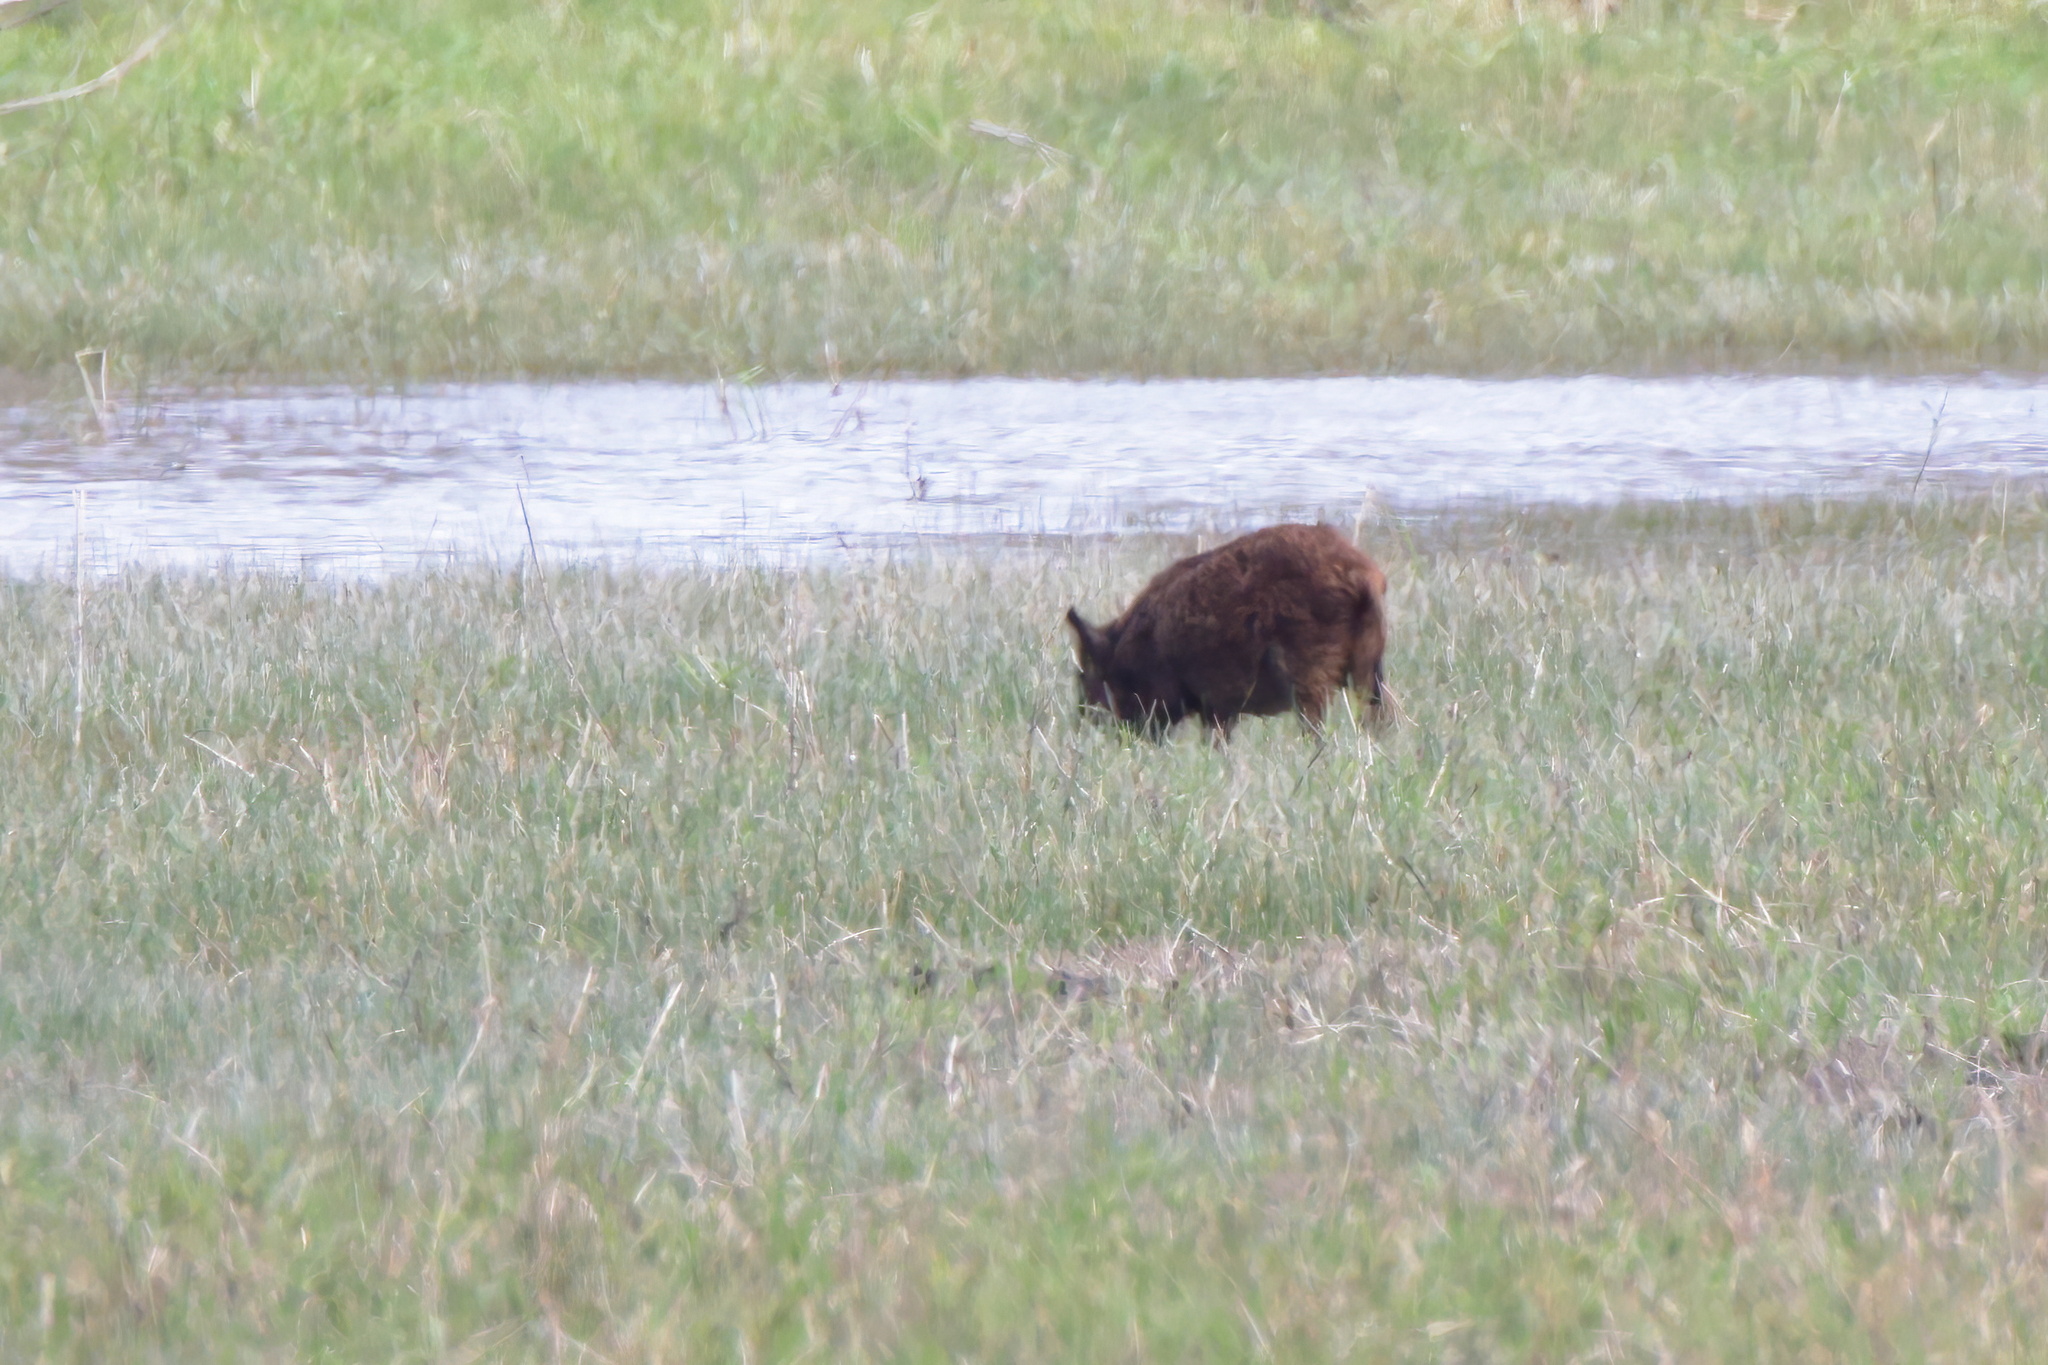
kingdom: Animalia
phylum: Chordata
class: Mammalia
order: Artiodactyla
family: Suidae
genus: Sus
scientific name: Sus scrofa
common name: Wild boar
